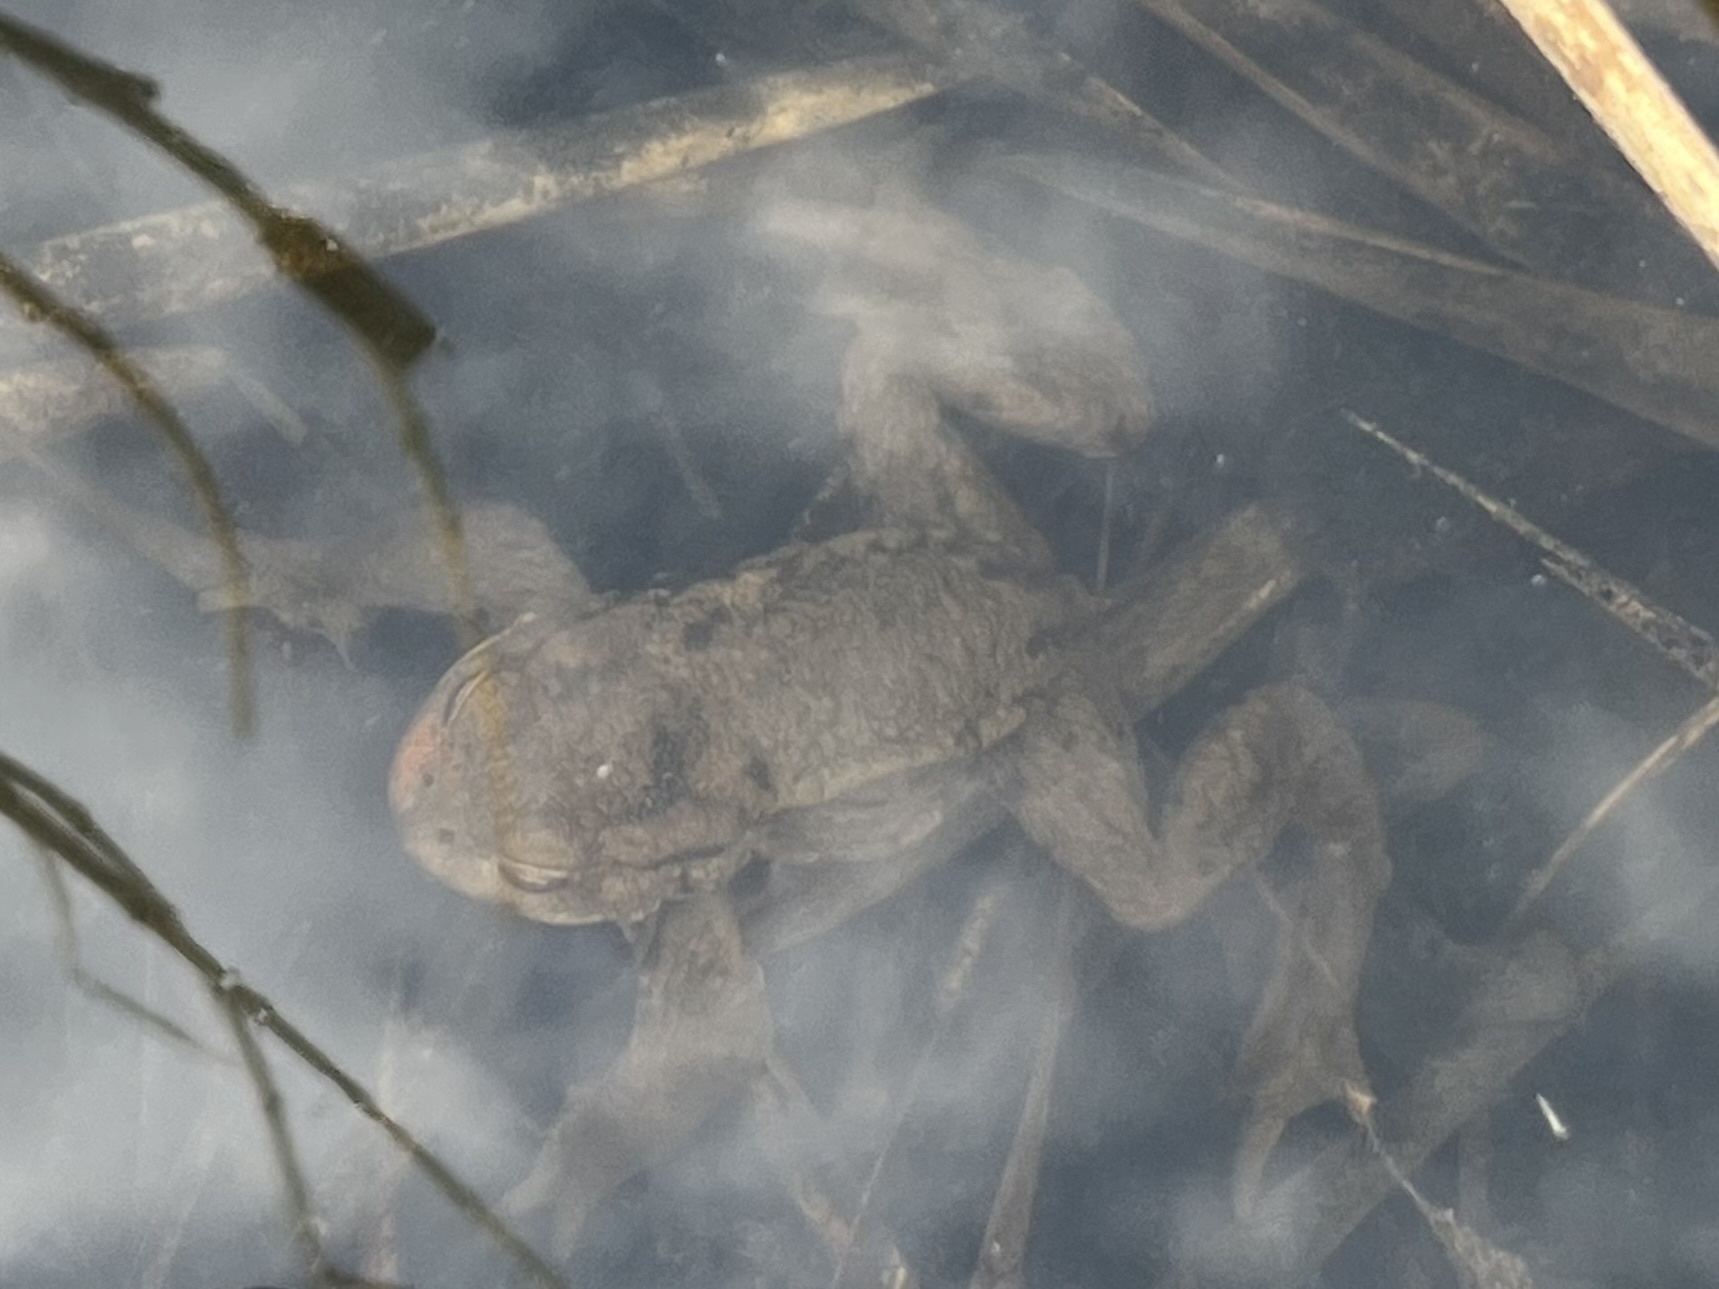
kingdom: Animalia
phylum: Chordata
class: Amphibia
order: Anura
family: Bufonidae
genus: Bufo
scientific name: Bufo bufo
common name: Common toad
